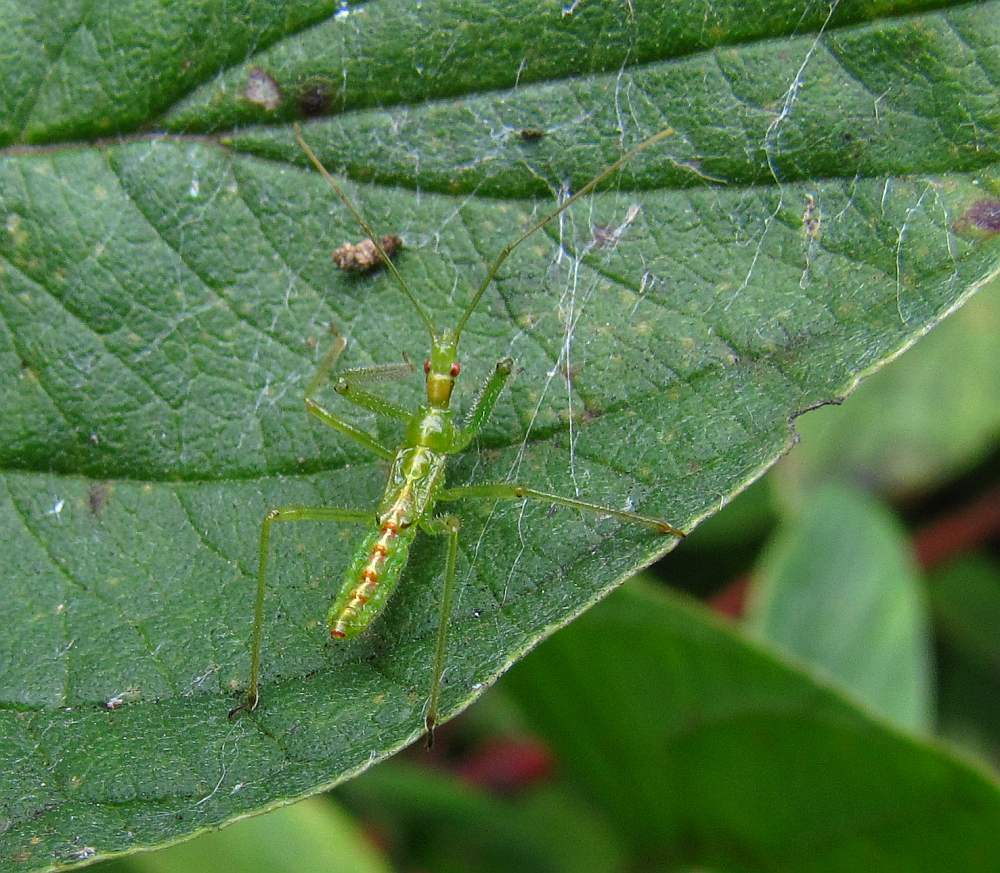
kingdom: Animalia
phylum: Arthropoda
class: Insecta
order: Hemiptera
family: Reduviidae
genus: Zelus
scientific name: Zelus luridus
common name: Pale green assassin bug
